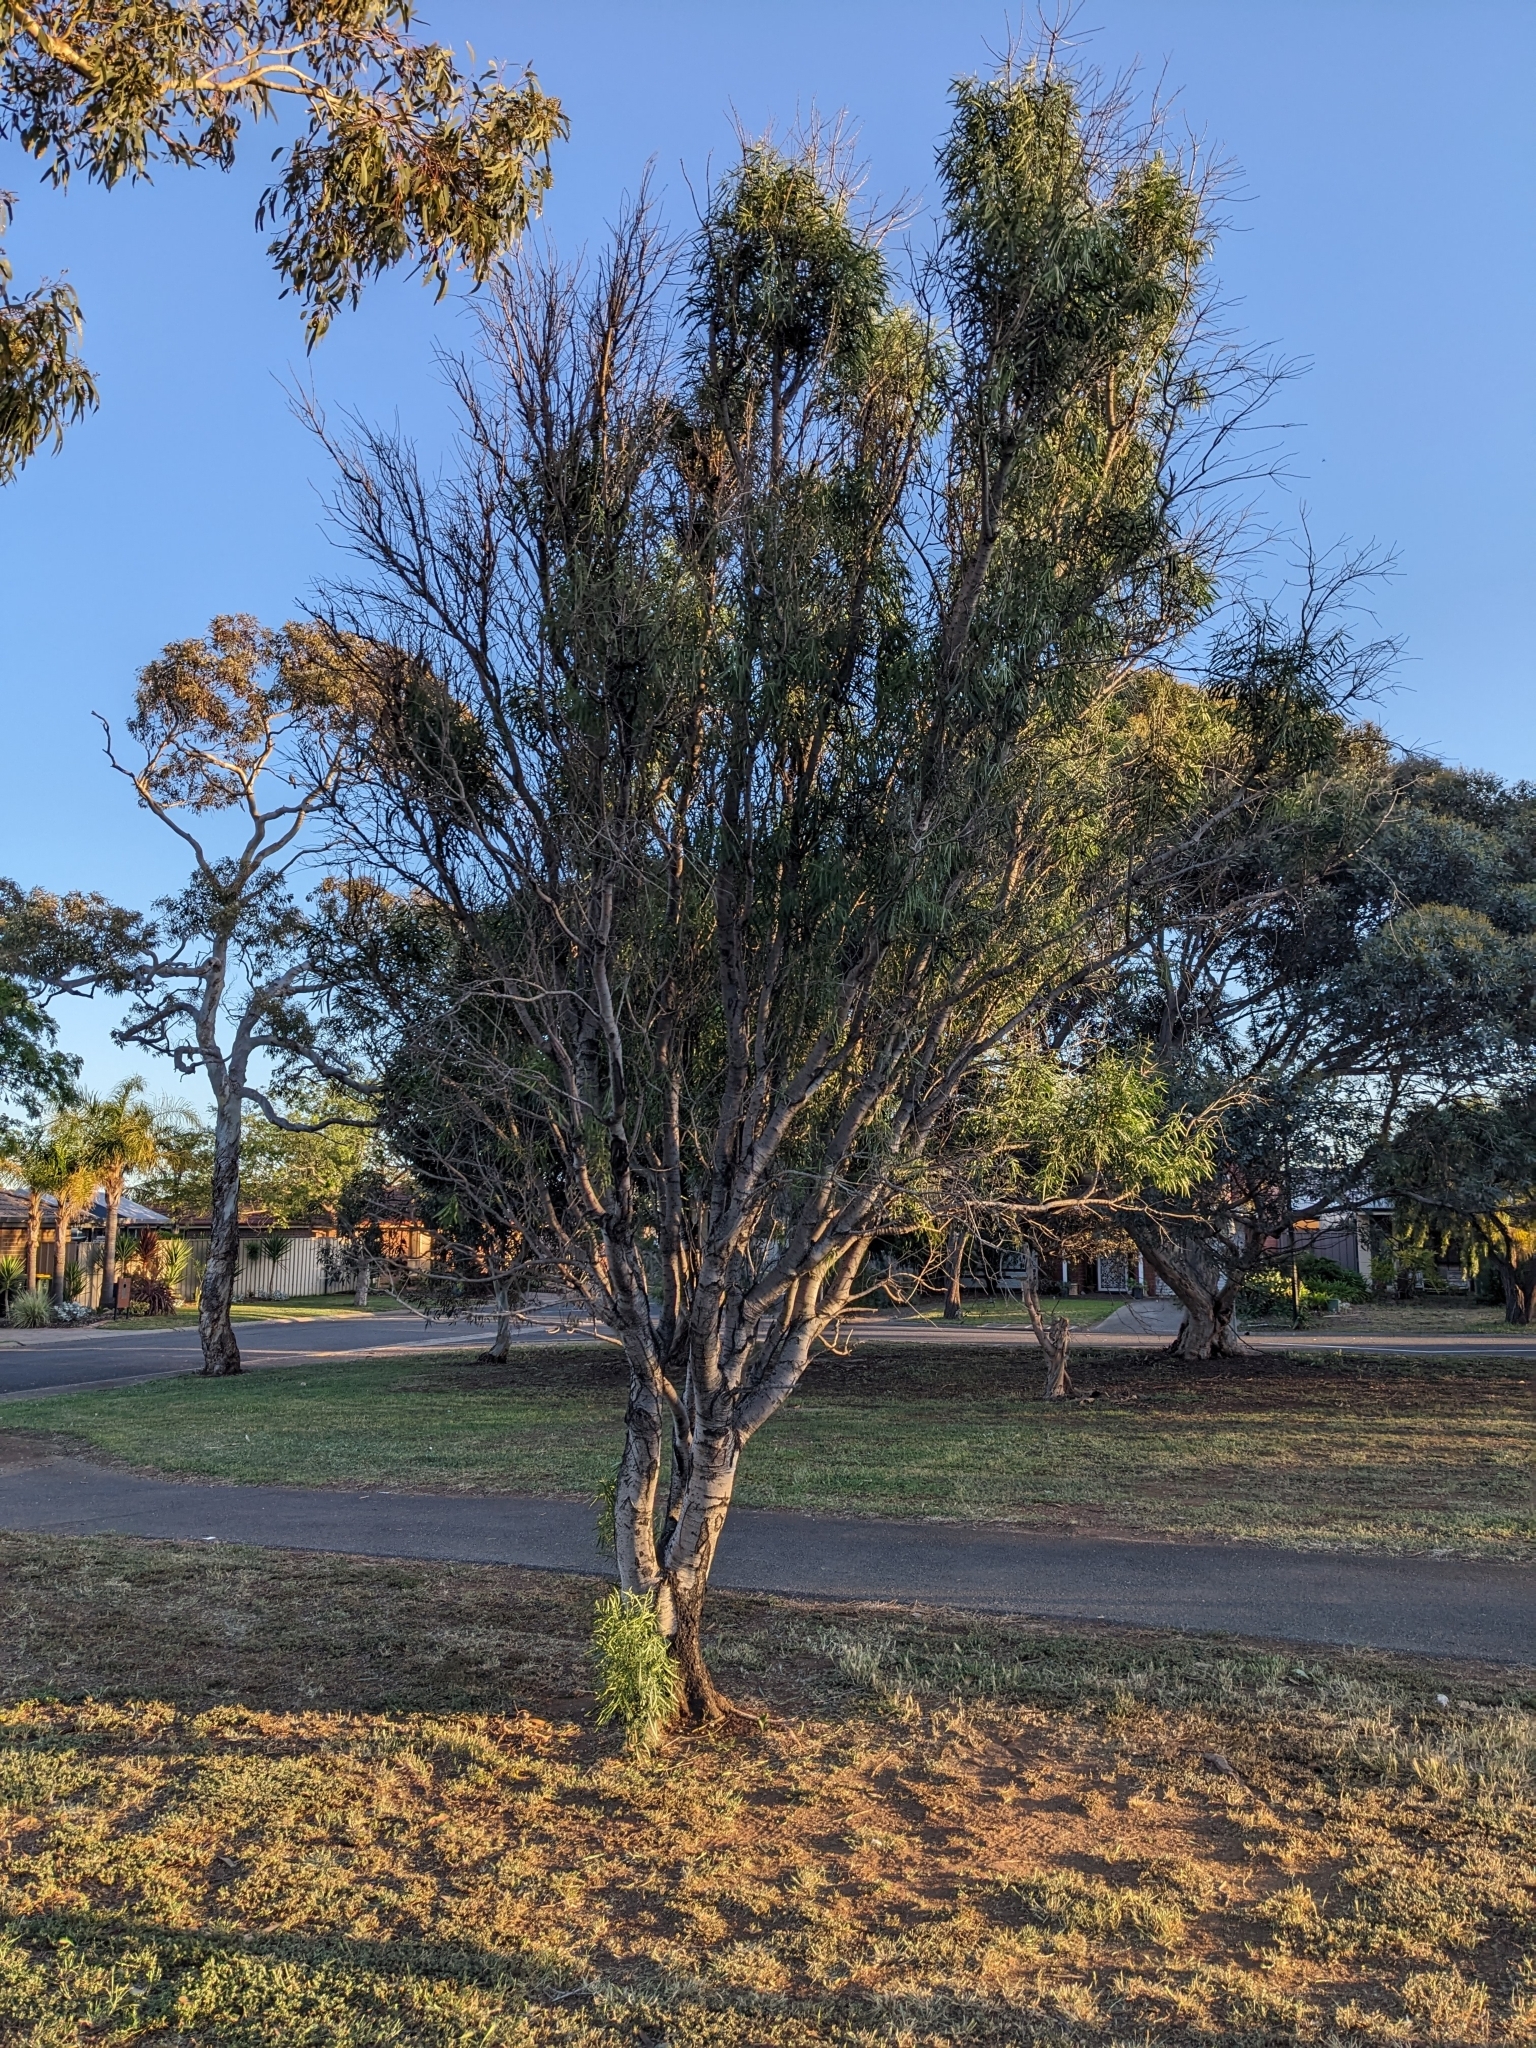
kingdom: Plantae
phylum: Tracheophyta
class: Magnoliopsida
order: Apiales
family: Pittosporaceae
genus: Pittosporum
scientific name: Pittosporum angustifolium
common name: Weeping pittosporum
